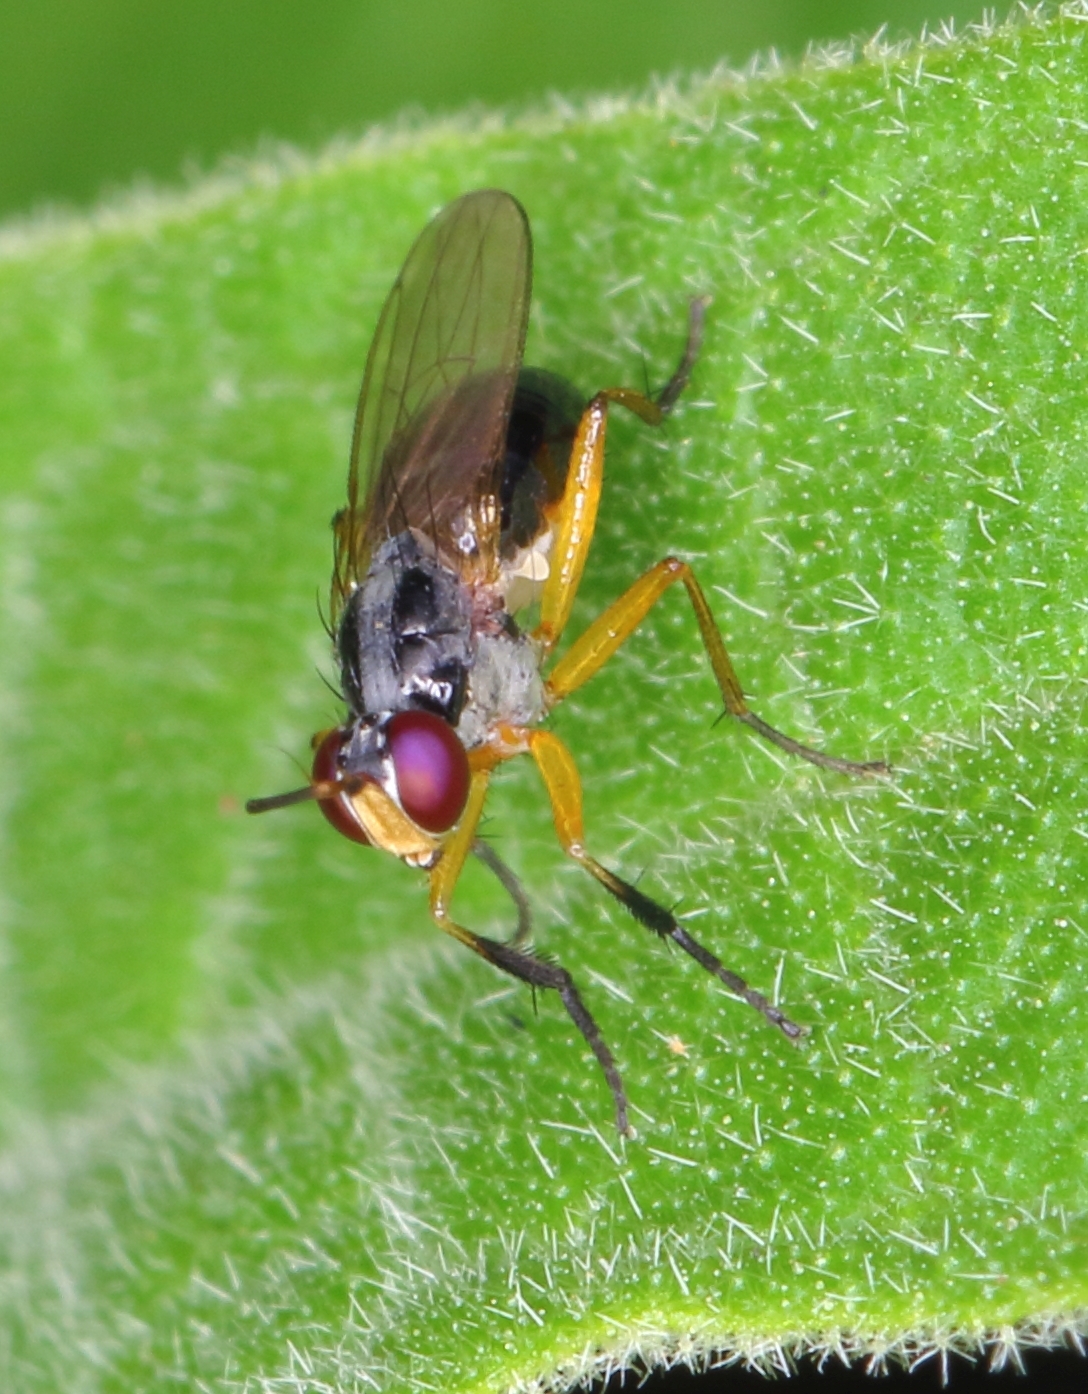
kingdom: Animalia
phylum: Arthropoda
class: Insecta
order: Diptera
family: Muscidae
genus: Anaphalantus
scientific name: Anaphalantus longicornis
